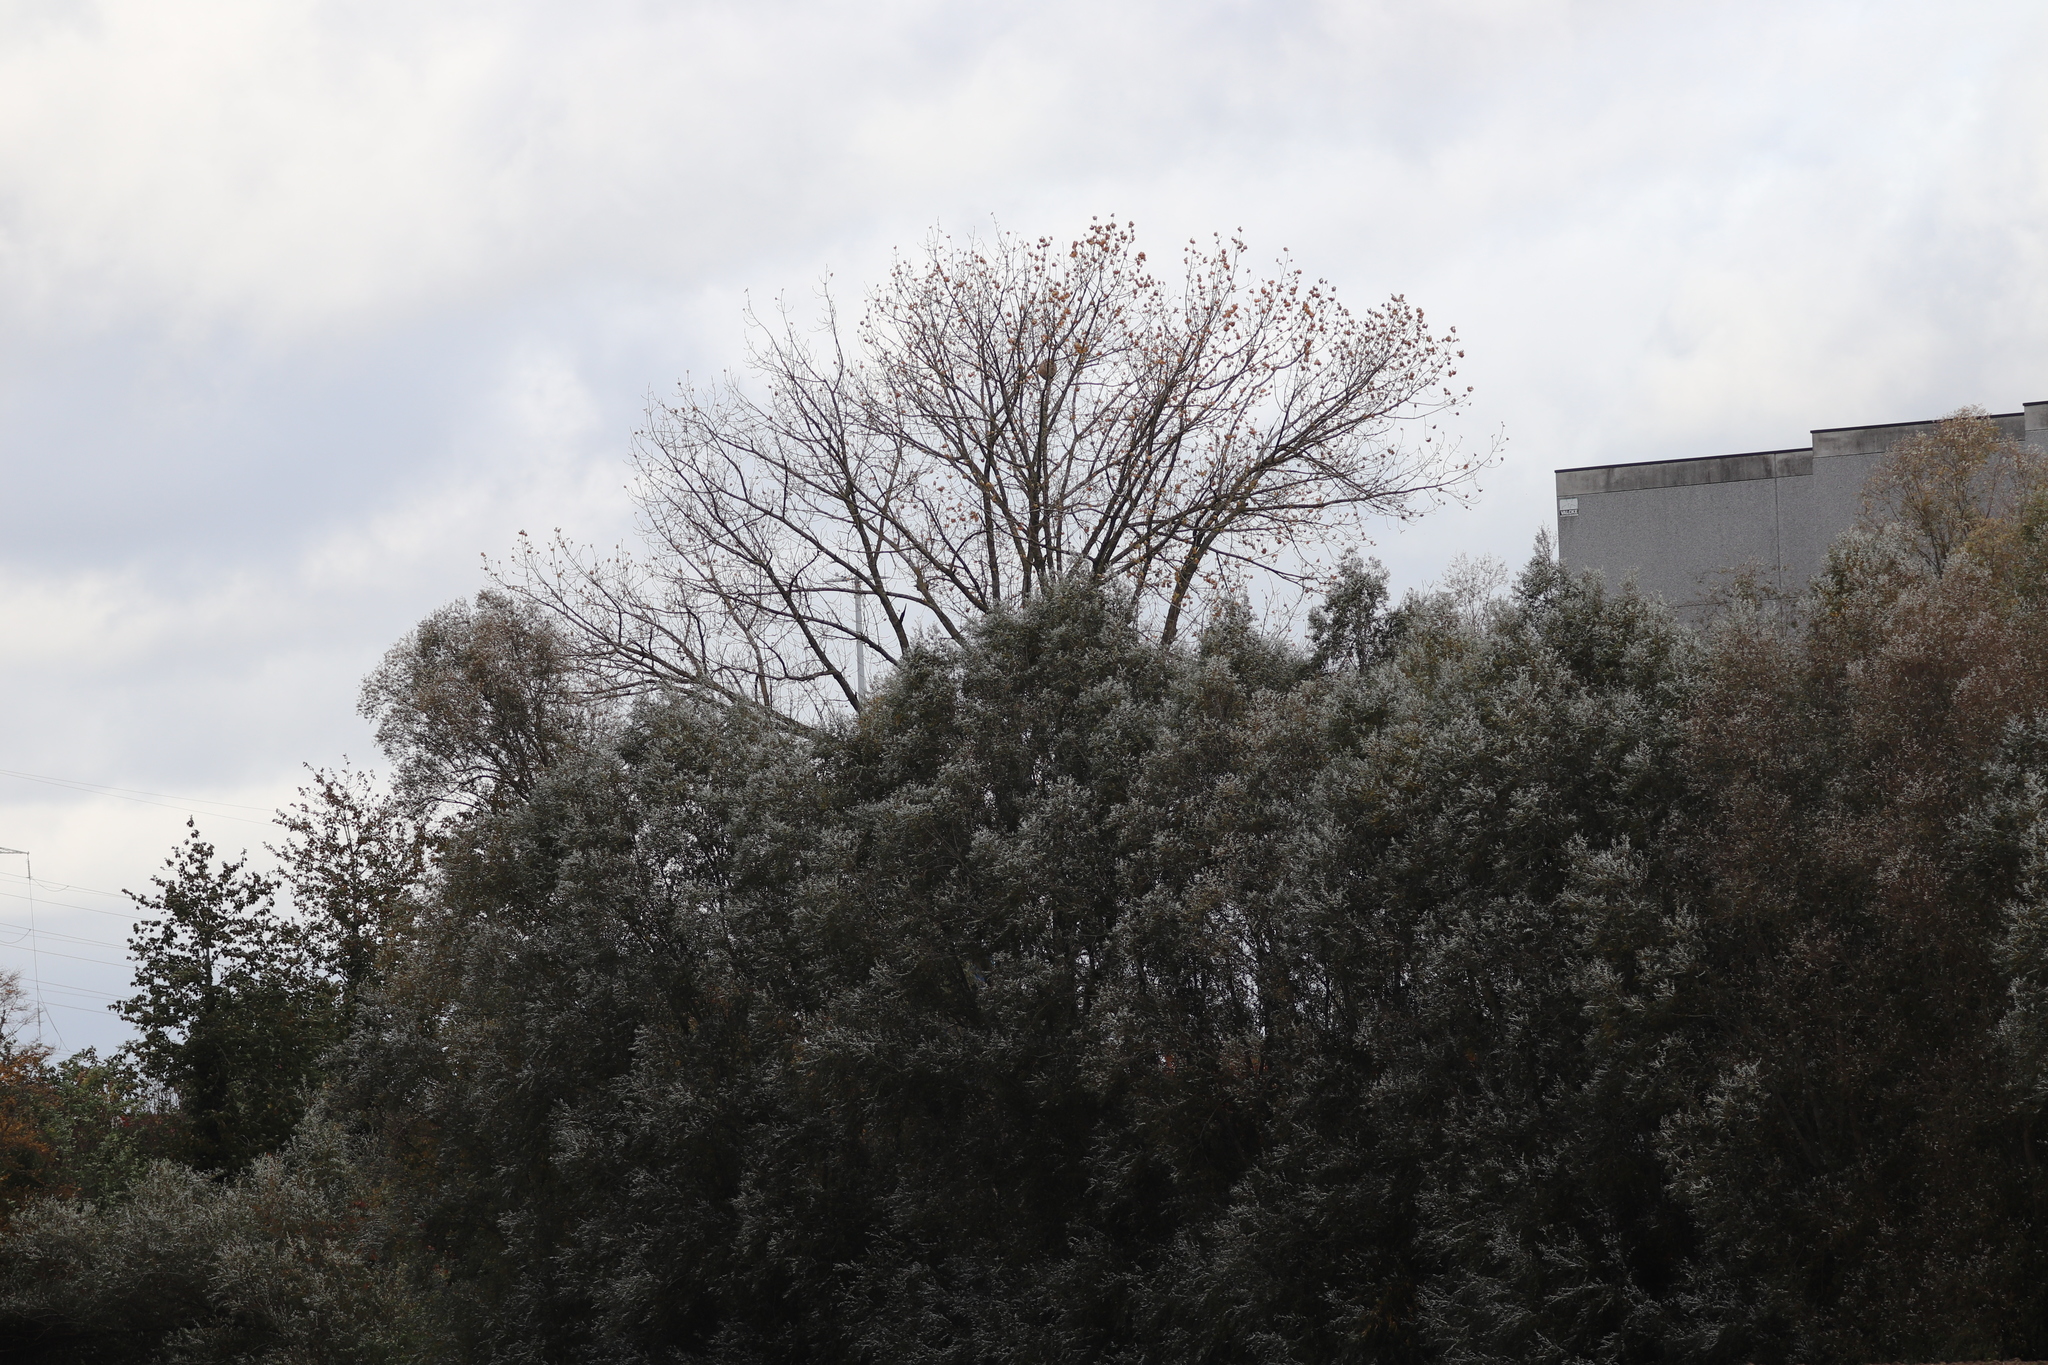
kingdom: Animalia
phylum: Arthropoda
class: Insecta
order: Hymenoptera
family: Vespidae
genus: Vespa
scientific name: Vespa velutina
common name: Asian hornet
